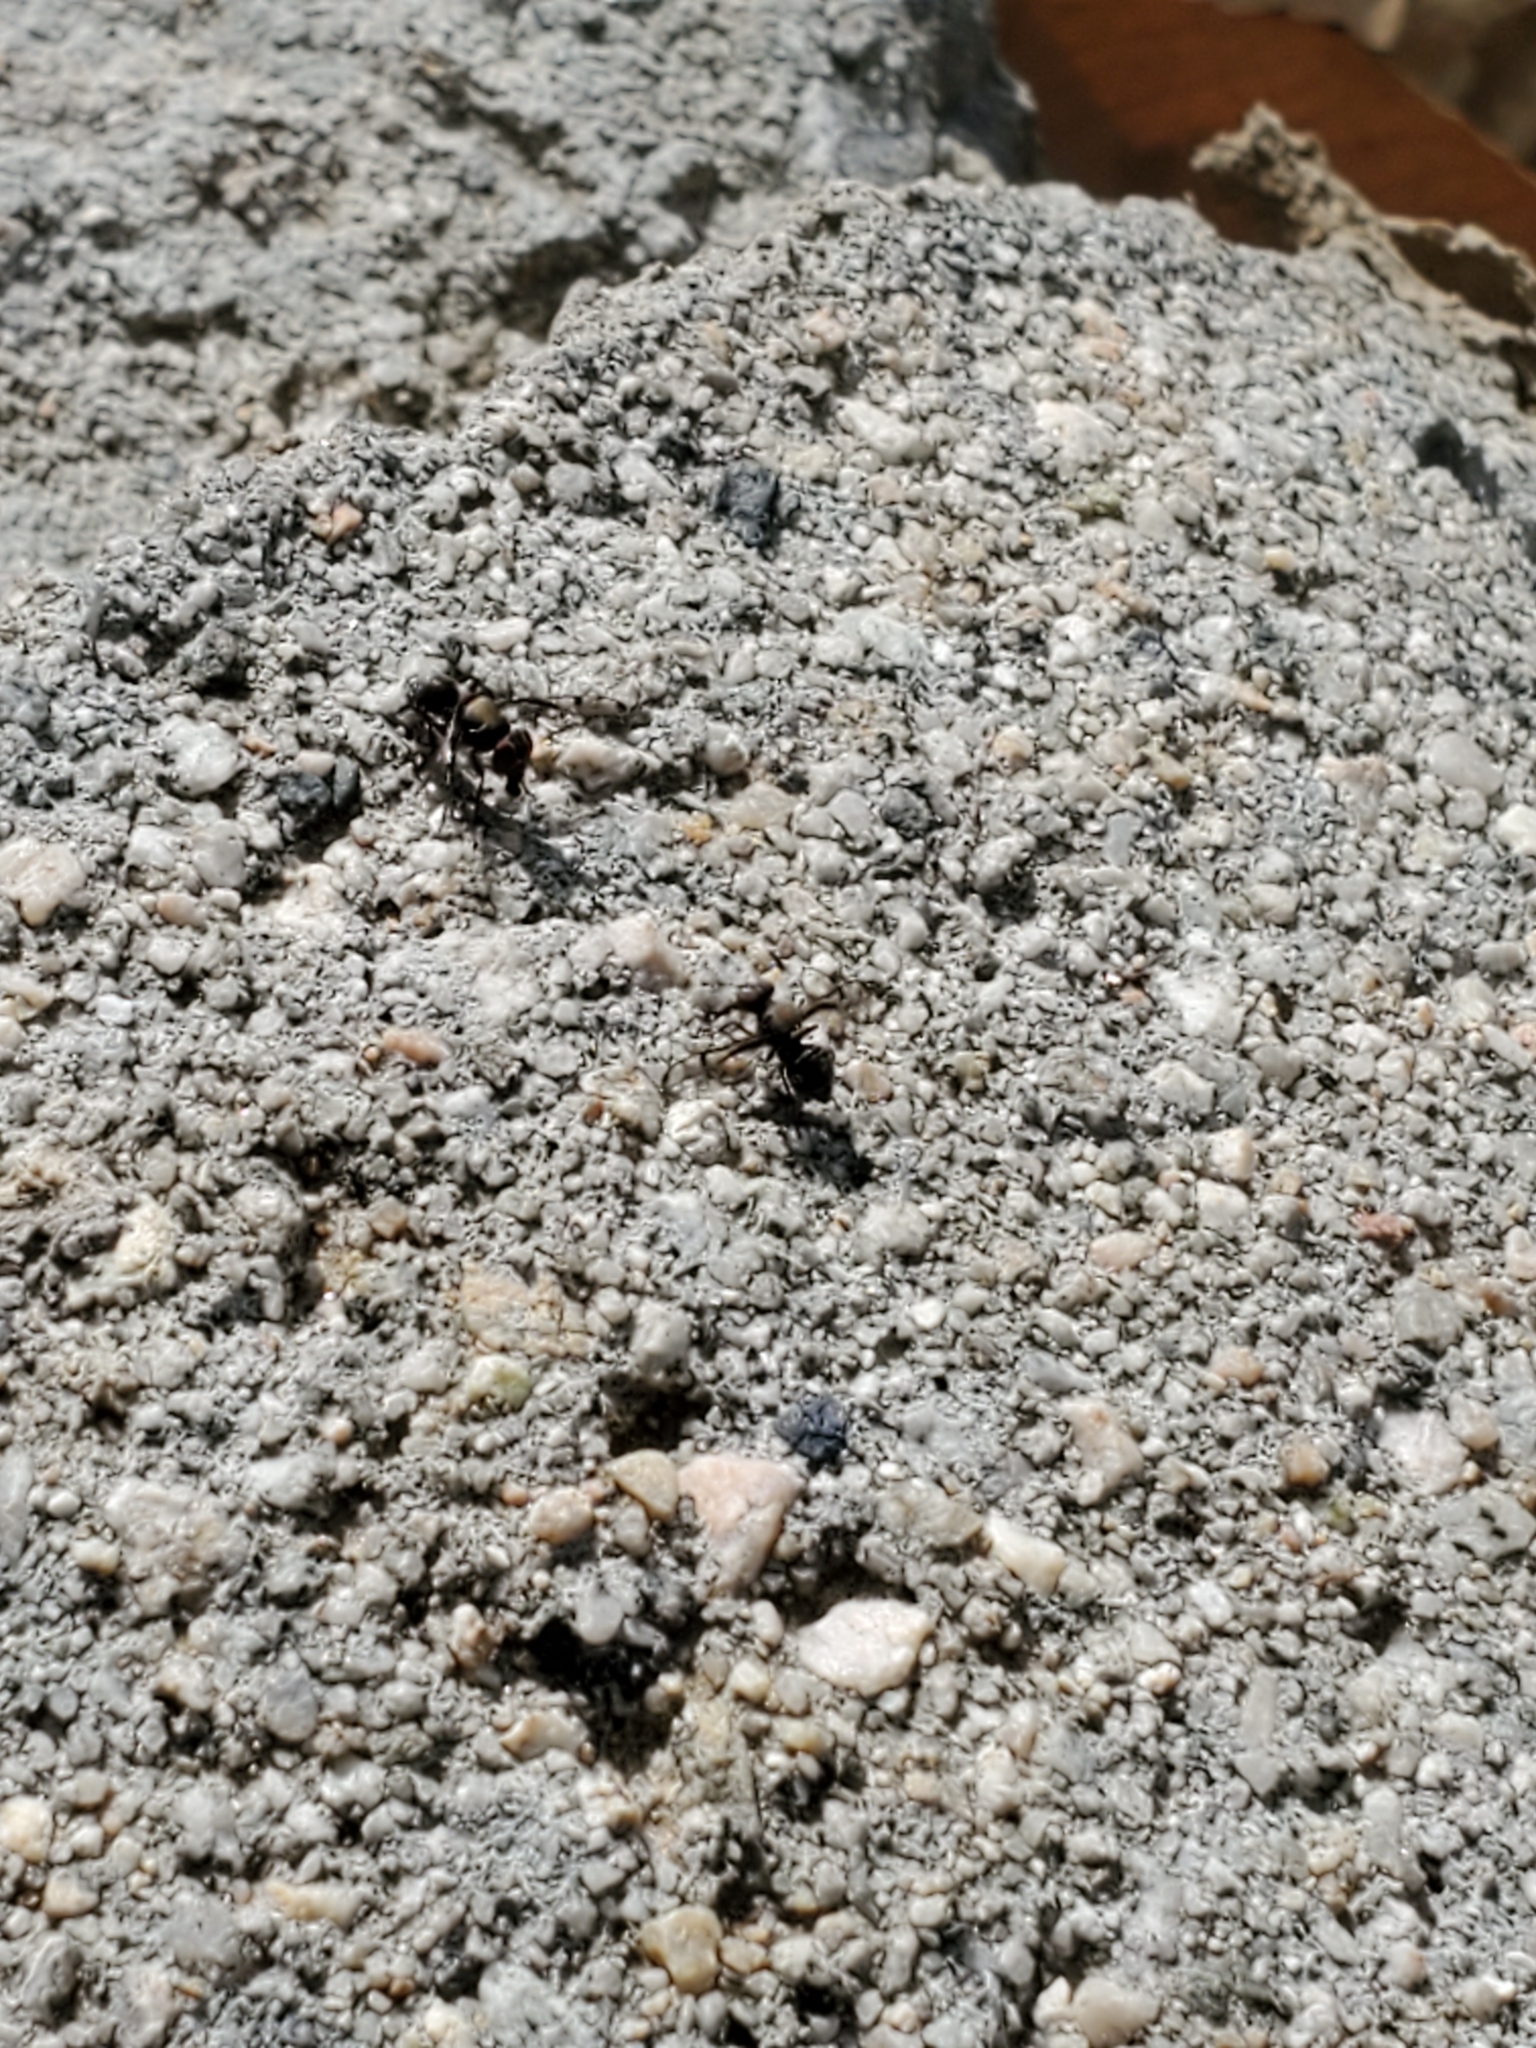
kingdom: Animalia
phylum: Arthropoda
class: Insecta
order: Diptera
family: Platystomatidae
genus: Pogonortalis
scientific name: Pogonortalis doclea
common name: Boatman fly
